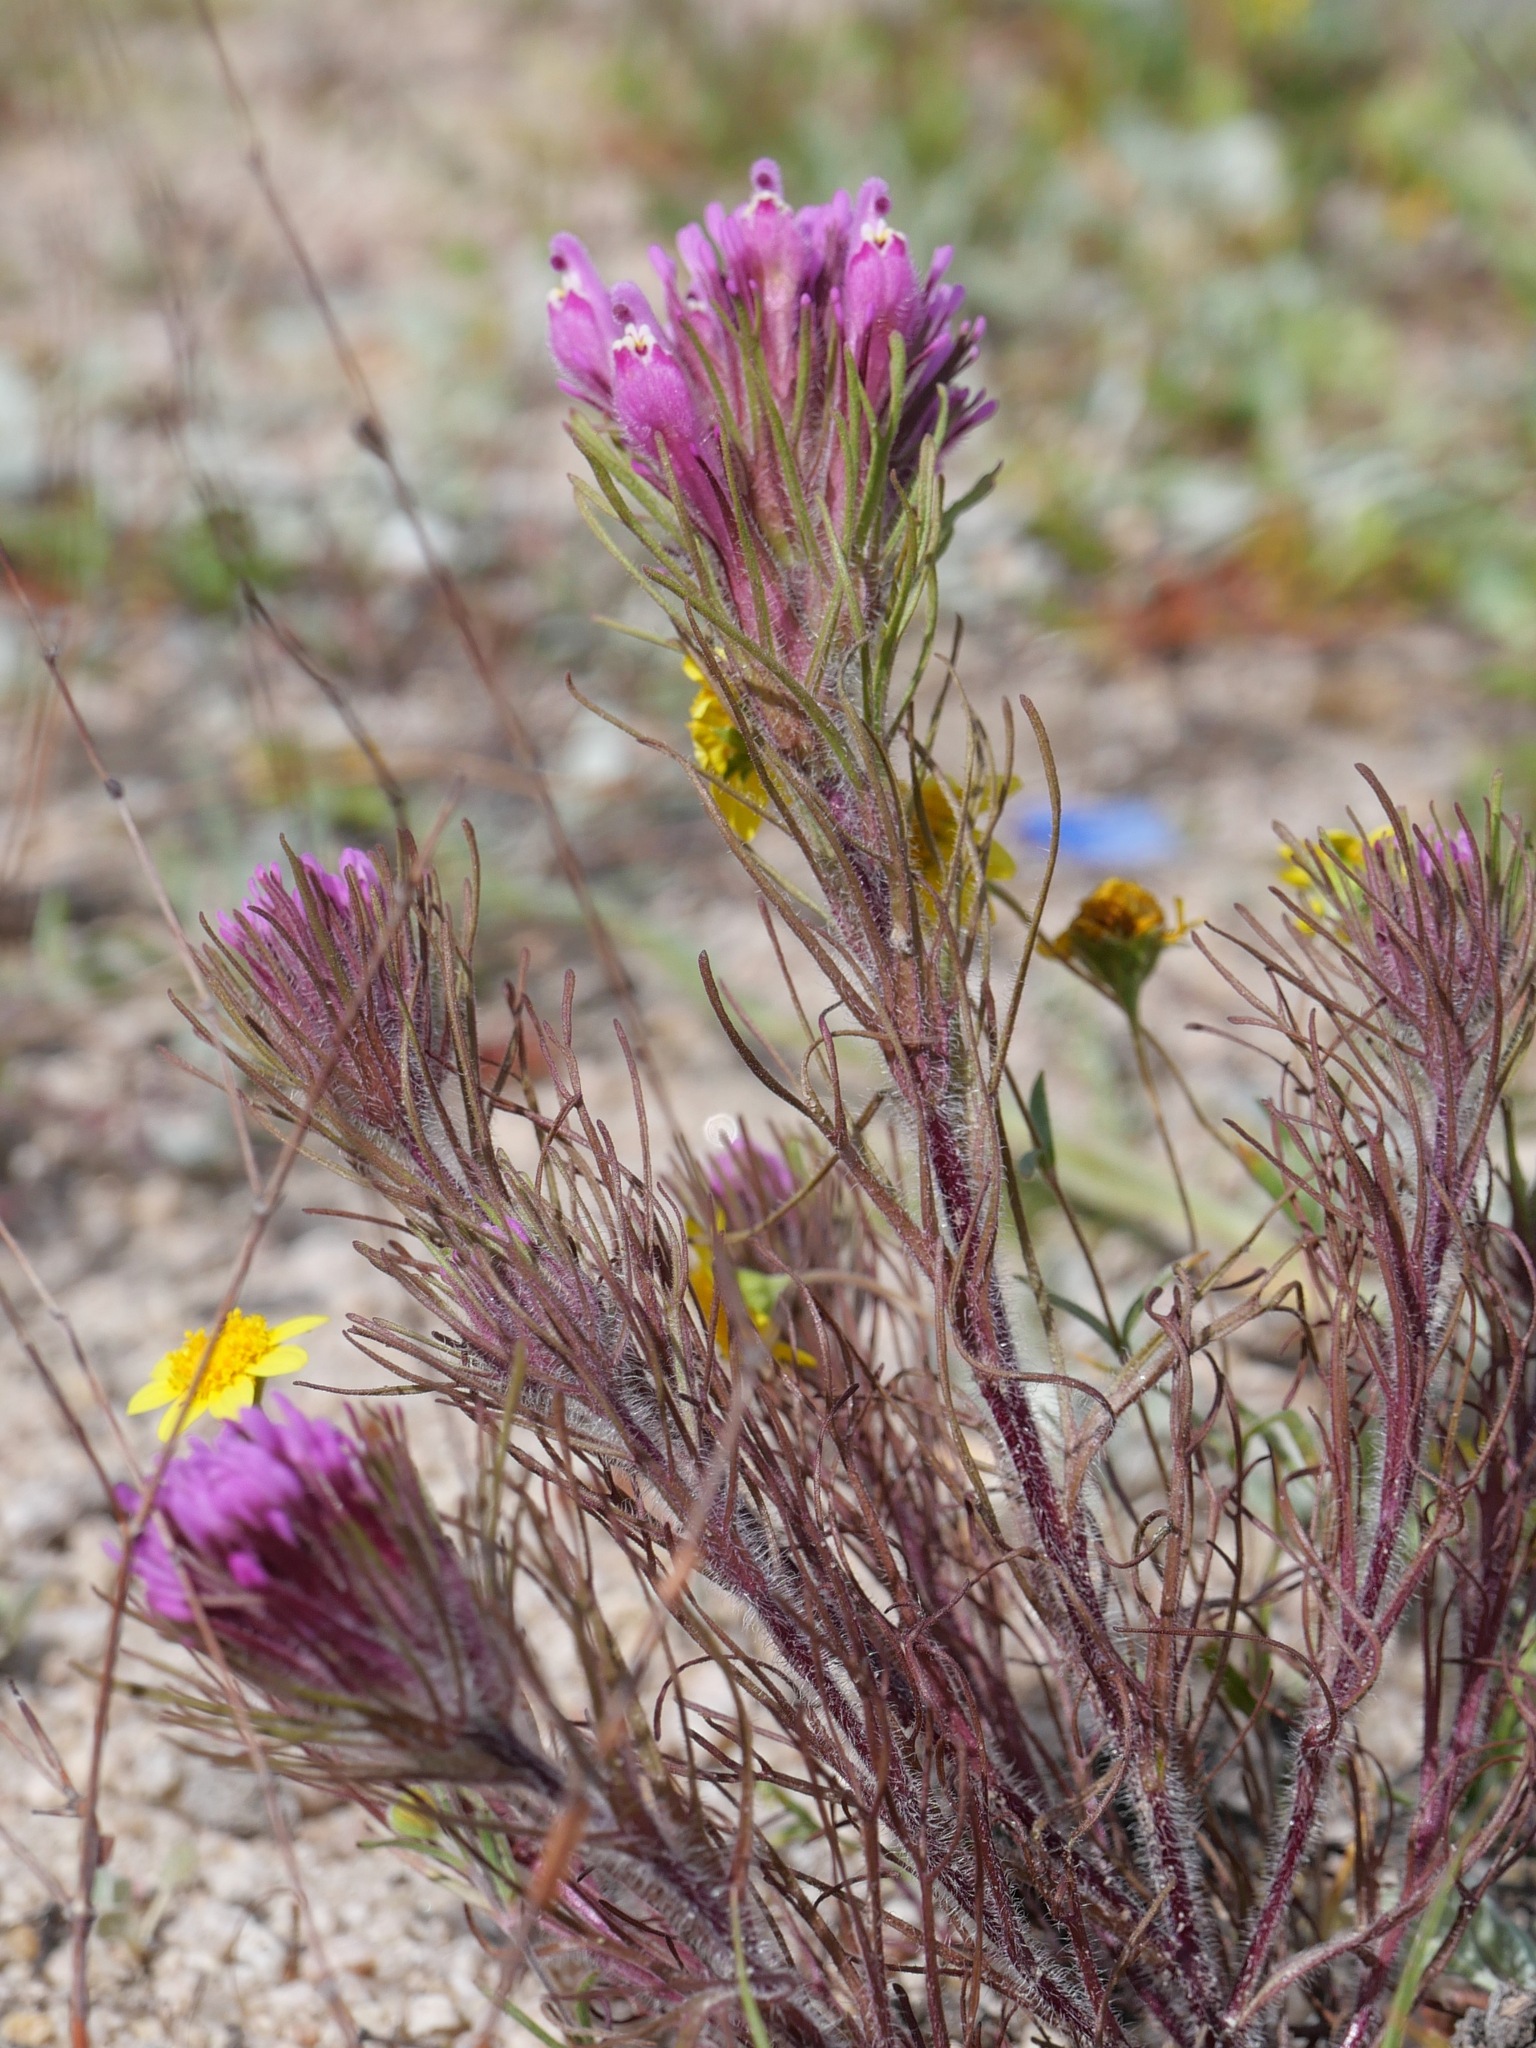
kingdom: Plantae
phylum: Tracheophyta
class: Magnoliopsida
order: Lamiales
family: Orobanchaceae
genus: Castilleja
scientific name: Castilleja exserta
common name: Purple owl-clover
